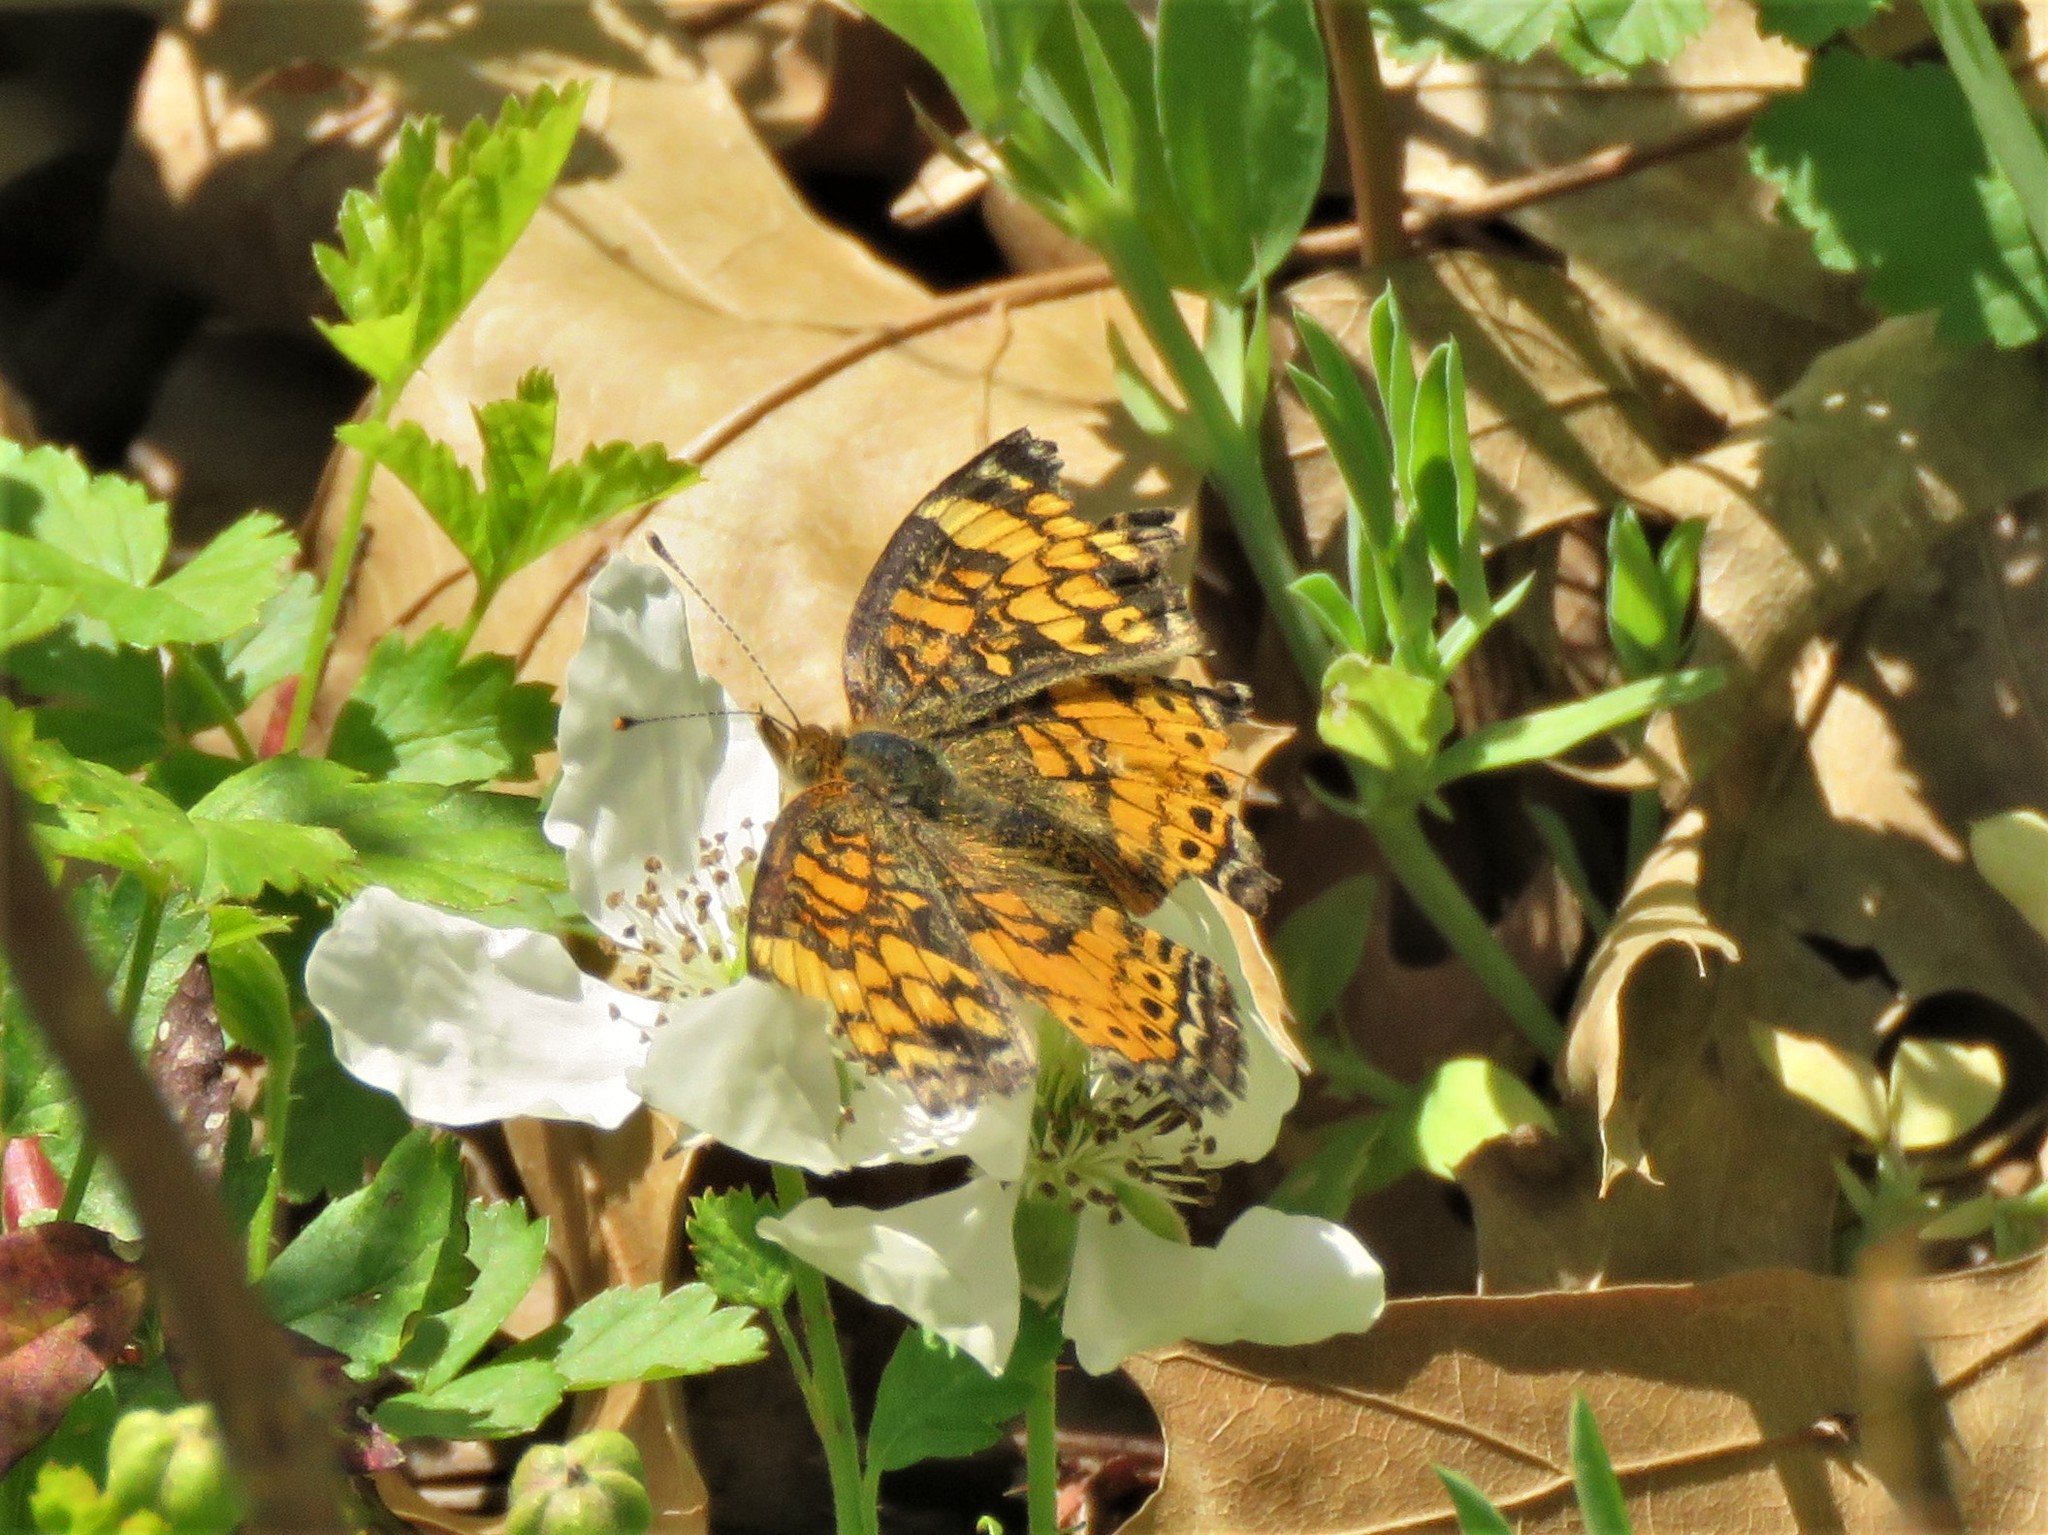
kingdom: Animalia
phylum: Arthropoda
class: Insecta
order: Lepidoptera
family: Nymphalidae
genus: Phyciodes
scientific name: Phyciodes tharos
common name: Pearl crescent
